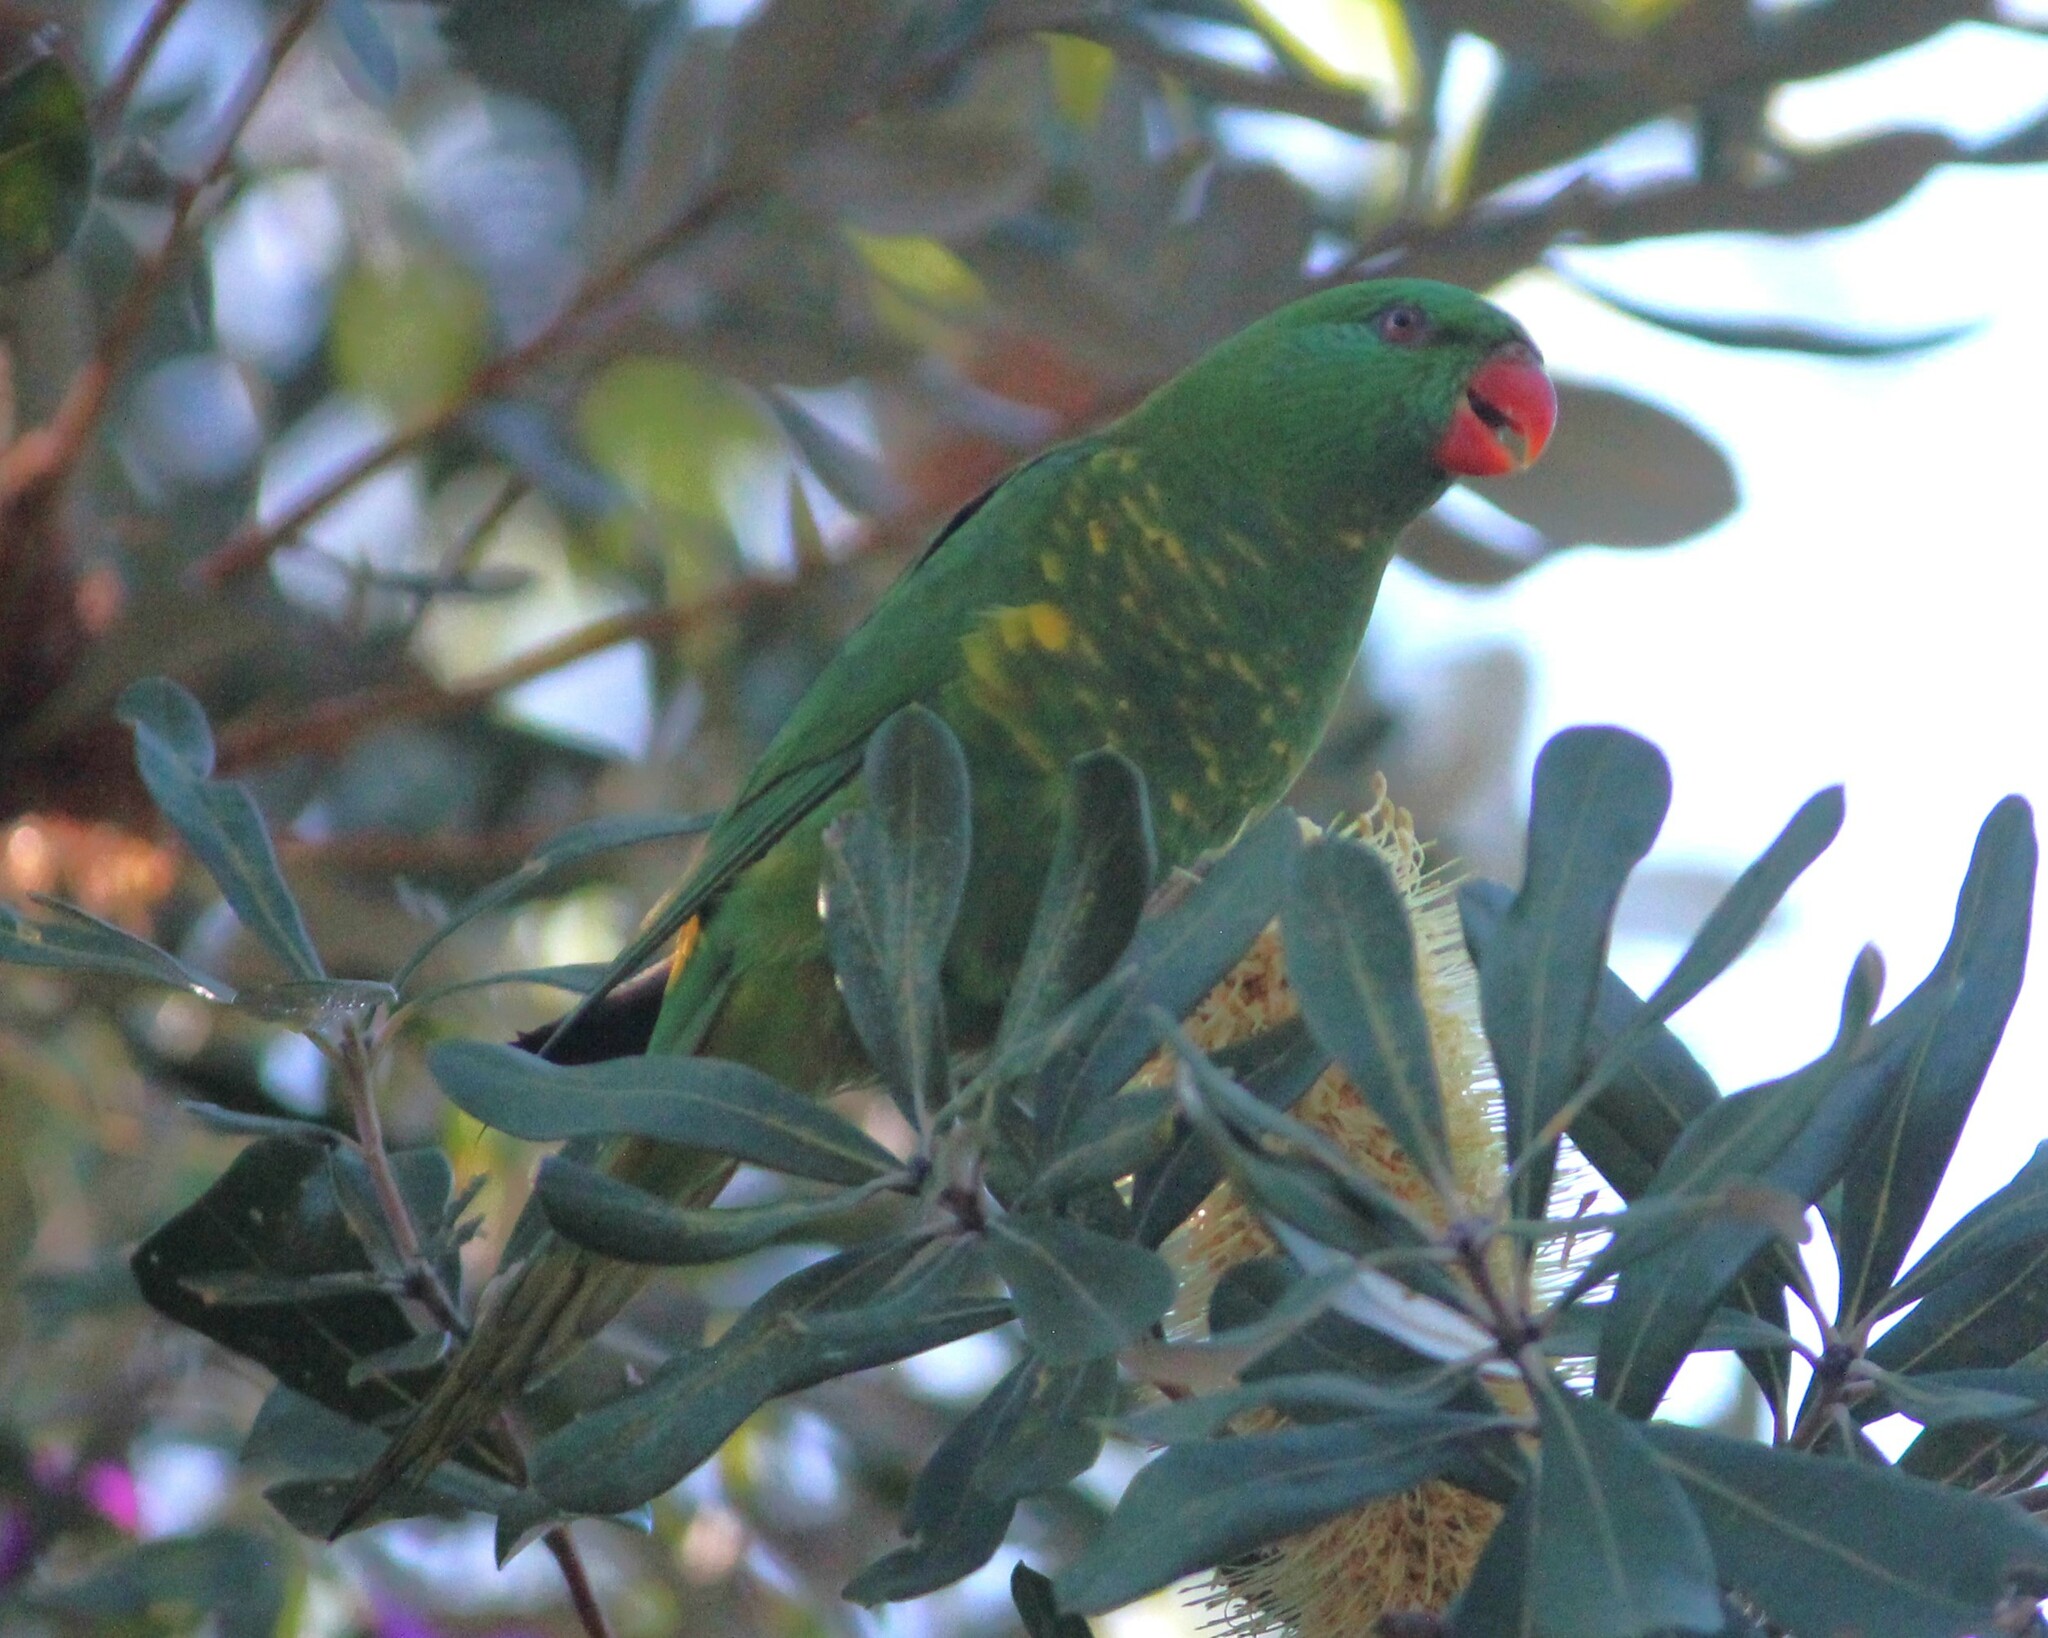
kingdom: Animalia
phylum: Chordata
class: Aves
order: Psittaciformes
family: Psittacidae
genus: Trichoglossus
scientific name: Trichoglossus chlorolepidotus
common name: Scaly-breasted lorikeet
